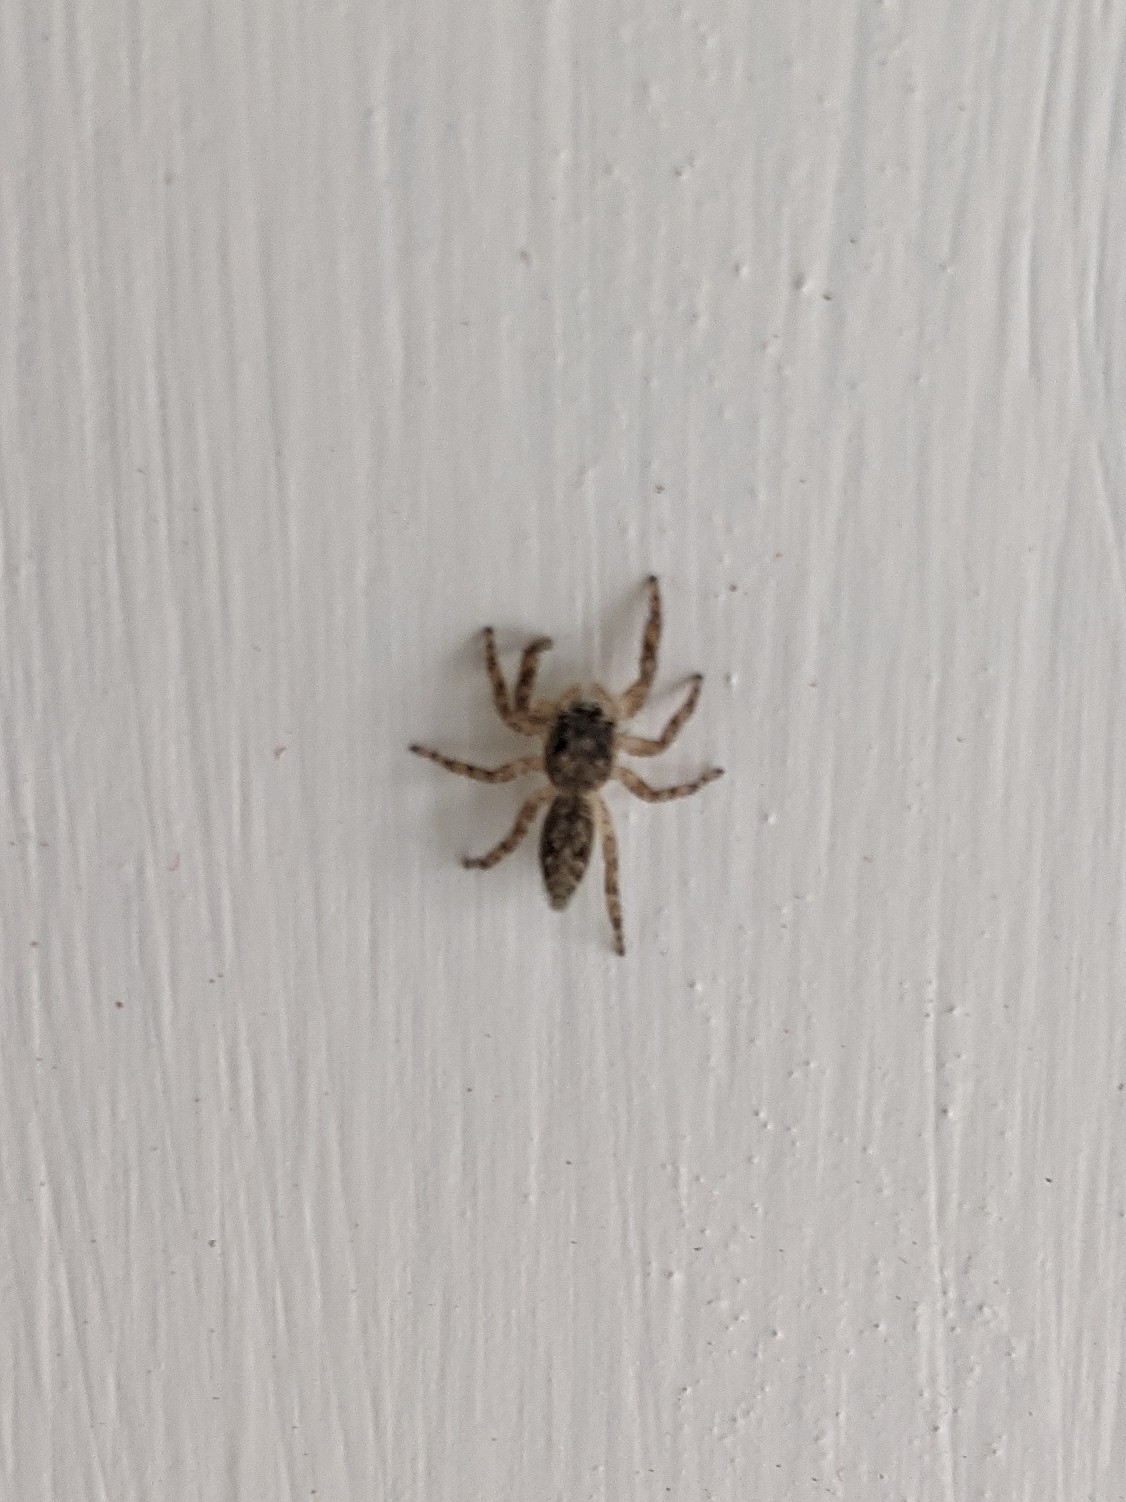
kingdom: Animalia
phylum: Arthropoda
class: Arachnida
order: Araneae
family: Salticidae
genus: Platycryptus
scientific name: Platycryptus undatus
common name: Tan jumping spider
